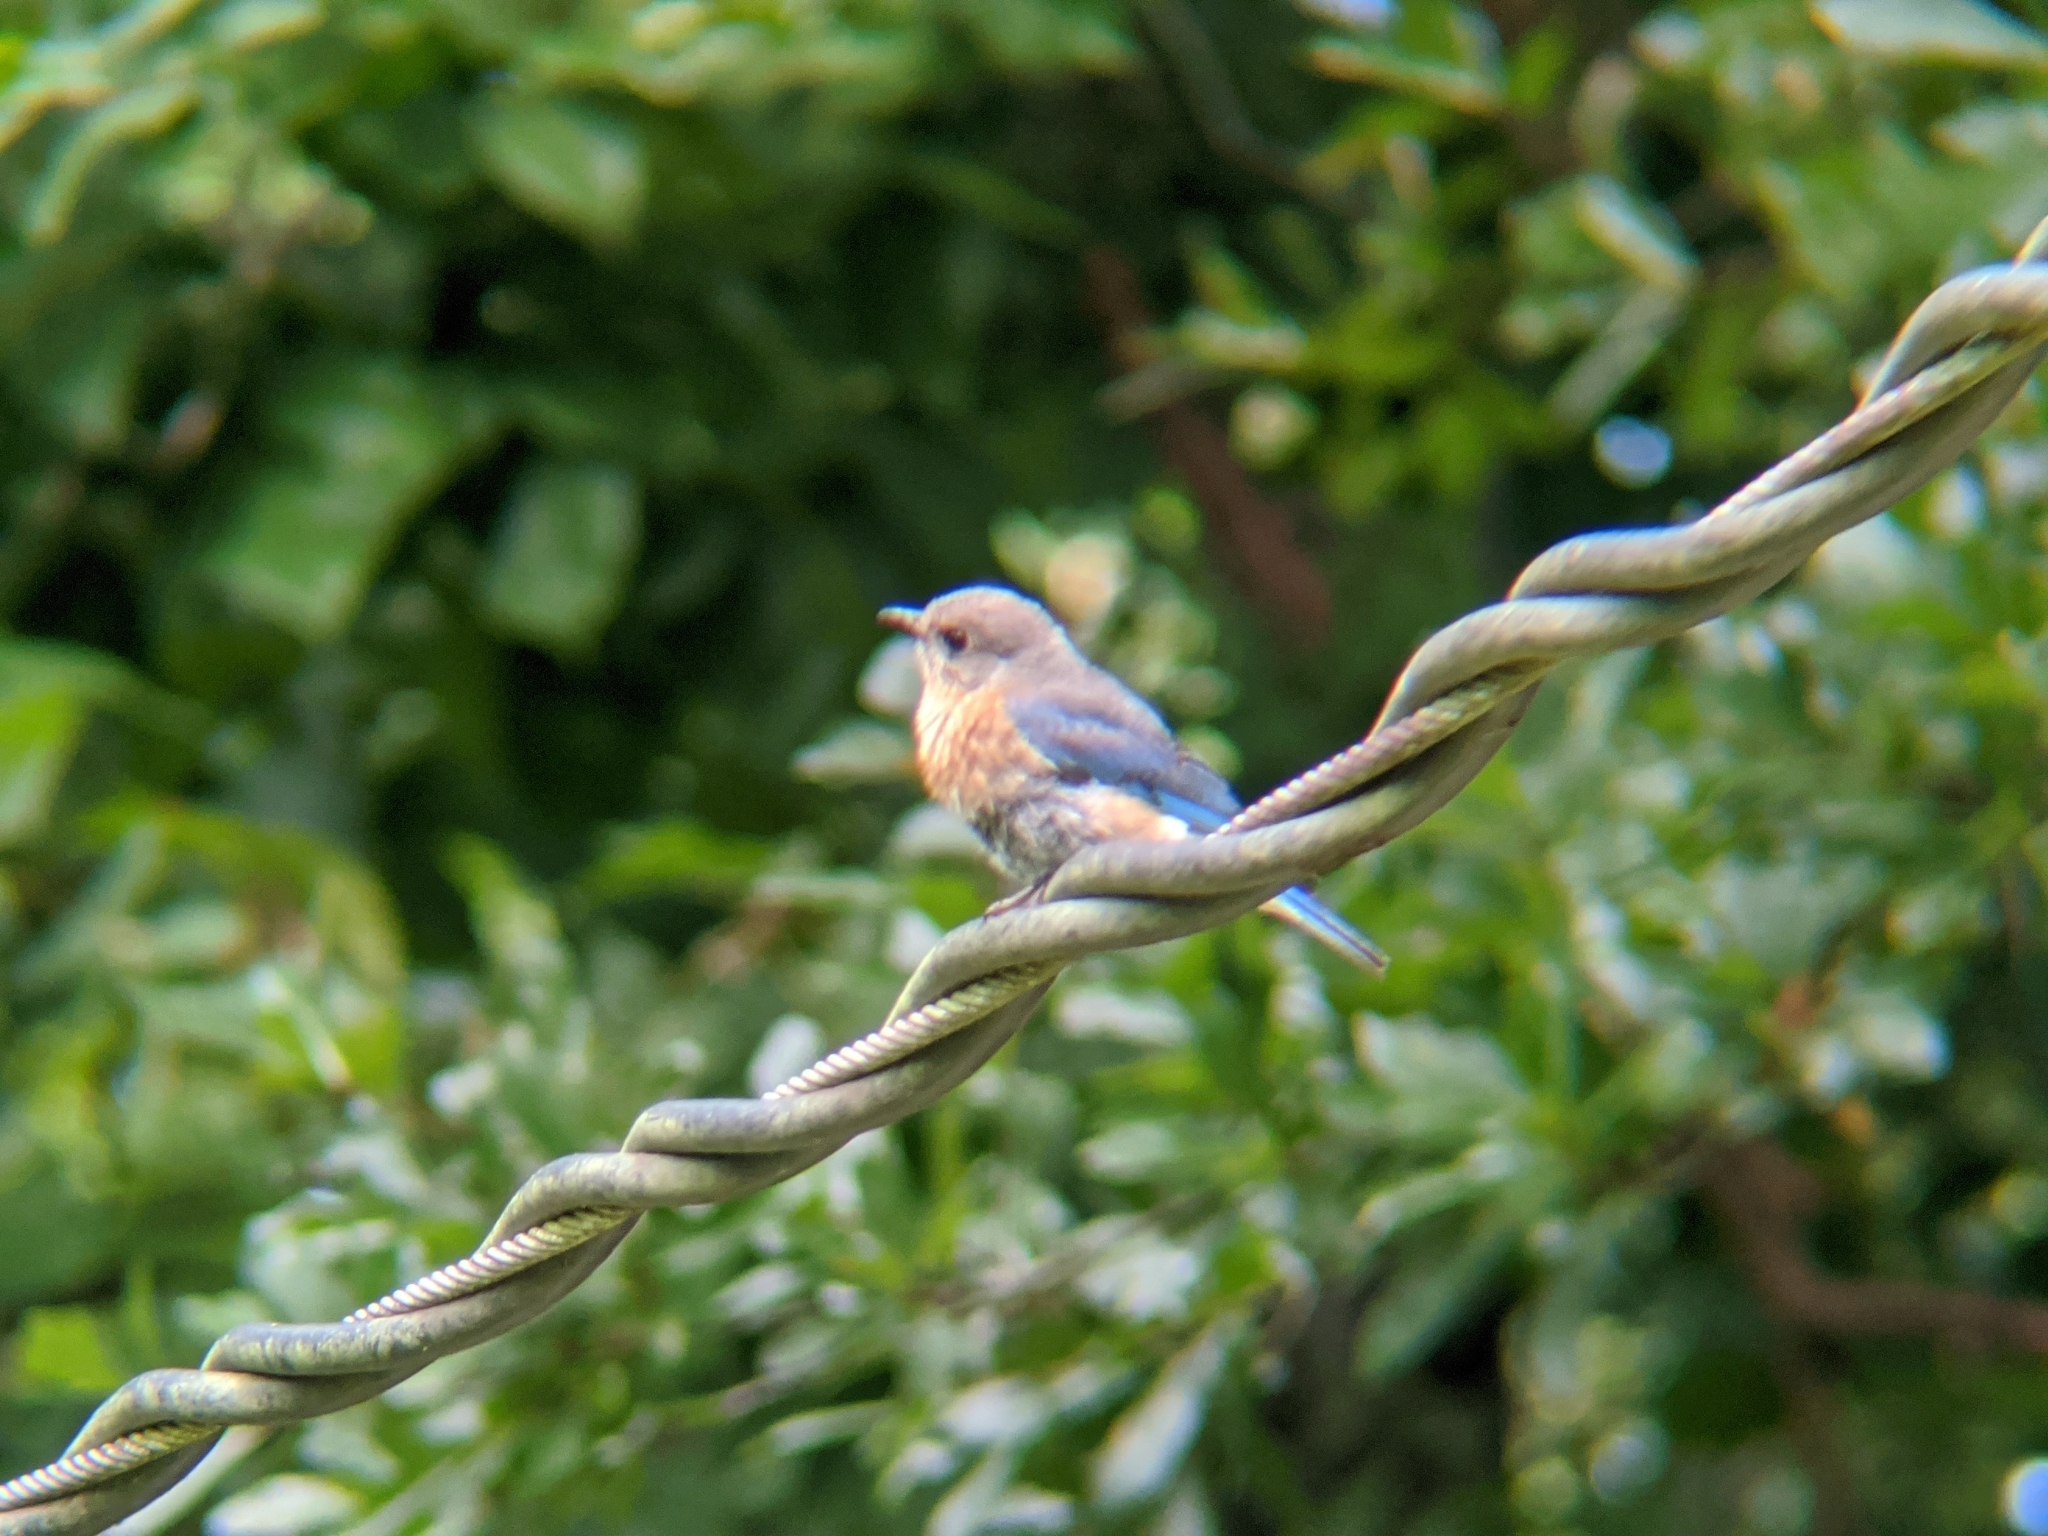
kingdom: Animalia
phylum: Chordata
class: Aves
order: Passeriformes
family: Turdidae
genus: Sialia
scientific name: Sialia sialis
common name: Eastern bluebird
